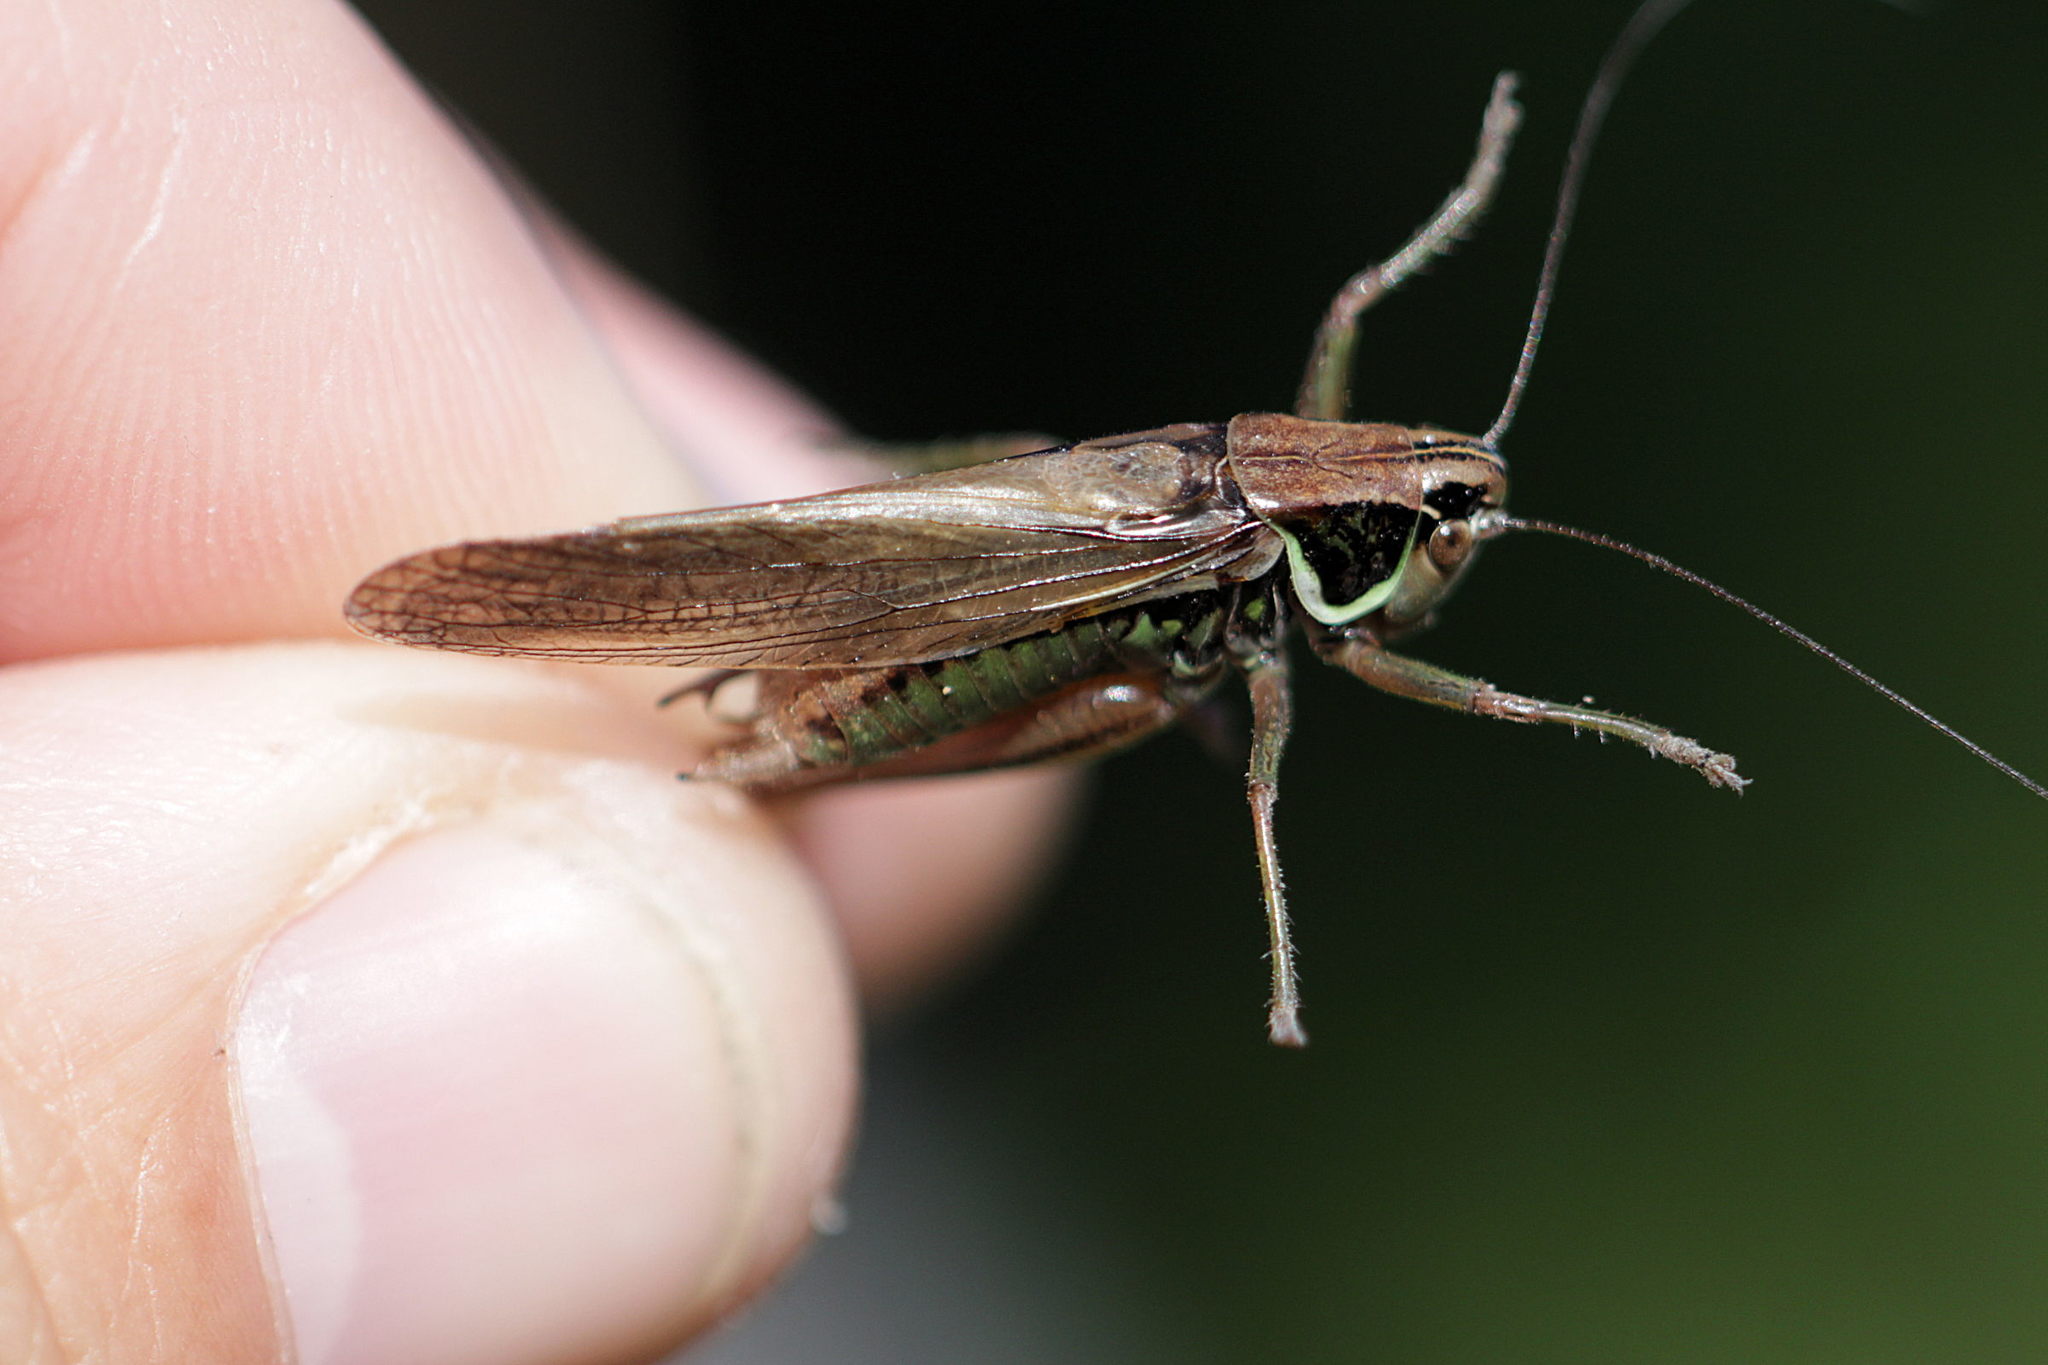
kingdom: Animalia
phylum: Arthropoda
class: Insecta
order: Orthoptera
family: Tettigoniidae
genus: Roeseliana
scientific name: Roeseliana roeselii
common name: Roesel's bush cricket
